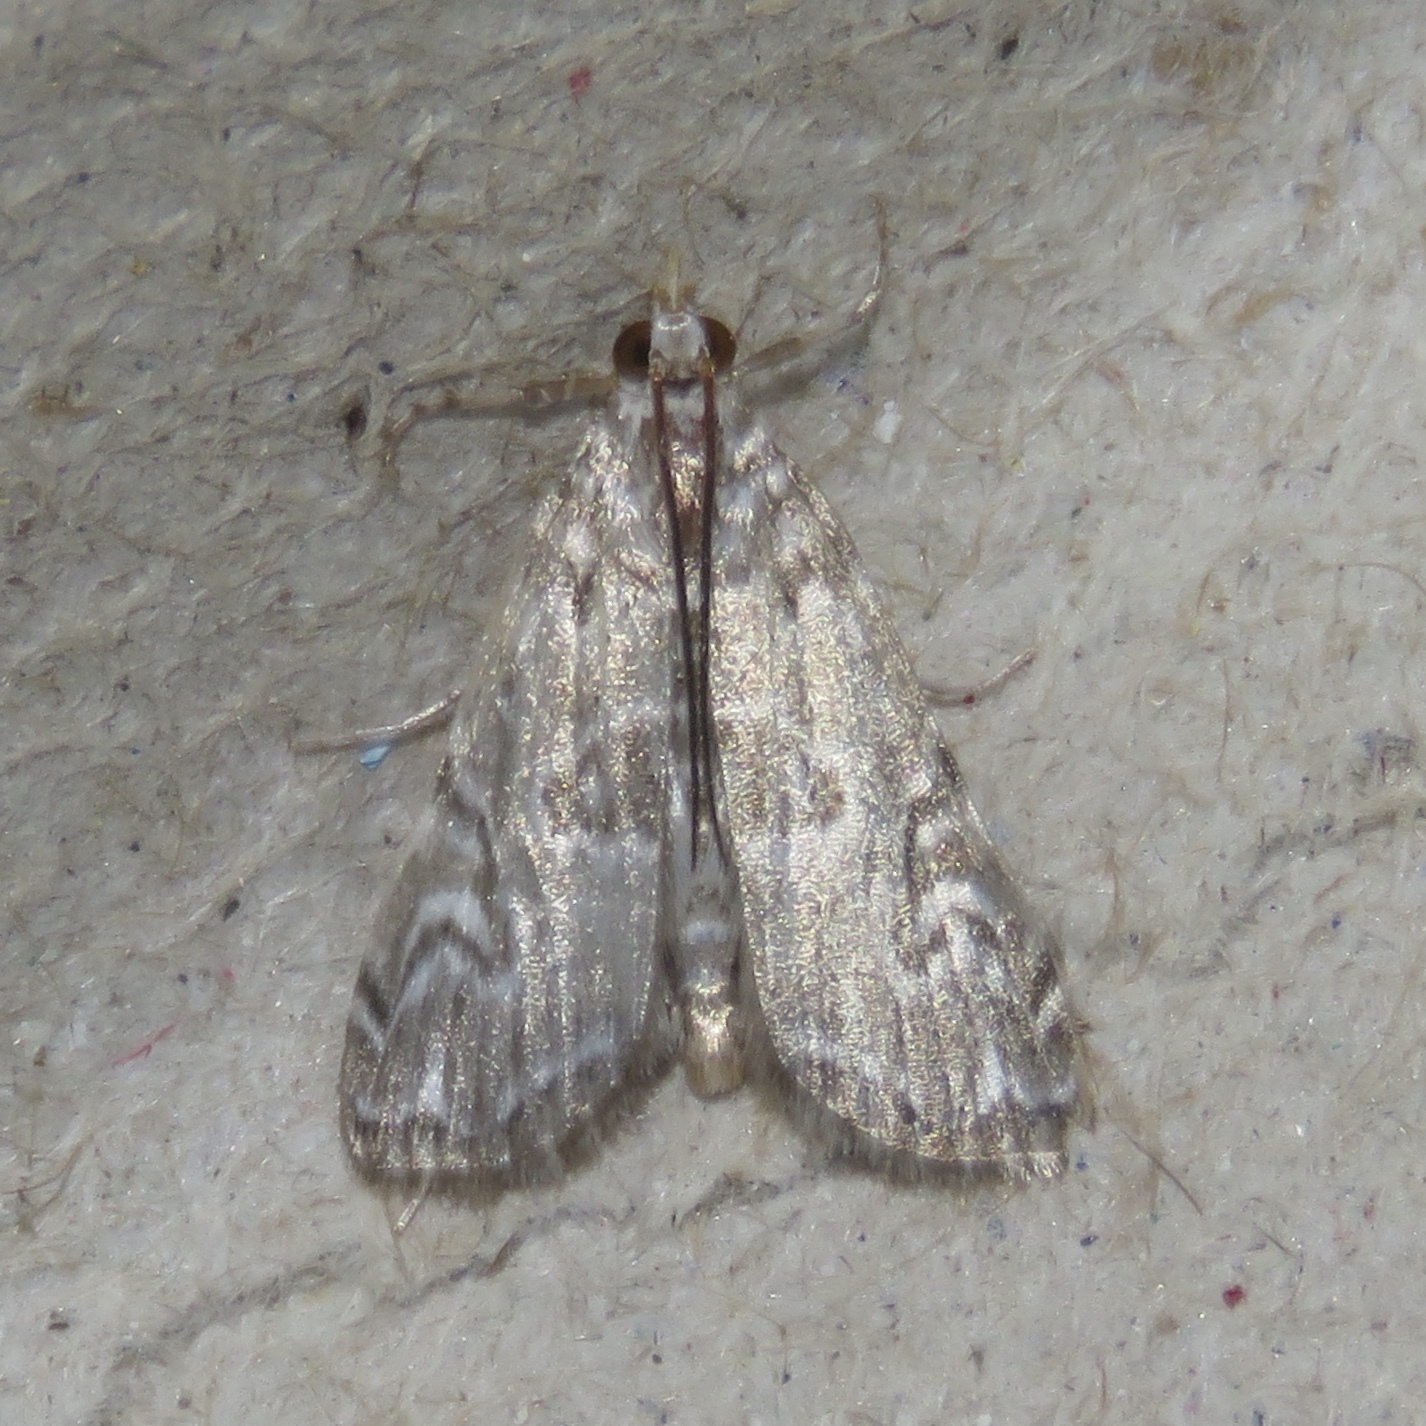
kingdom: Animalia
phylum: Arthropoda
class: Insecta
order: Lepidoptera
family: Crambidae
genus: Elophila
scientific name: Elophila gyralis
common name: Waterlily borer moth
